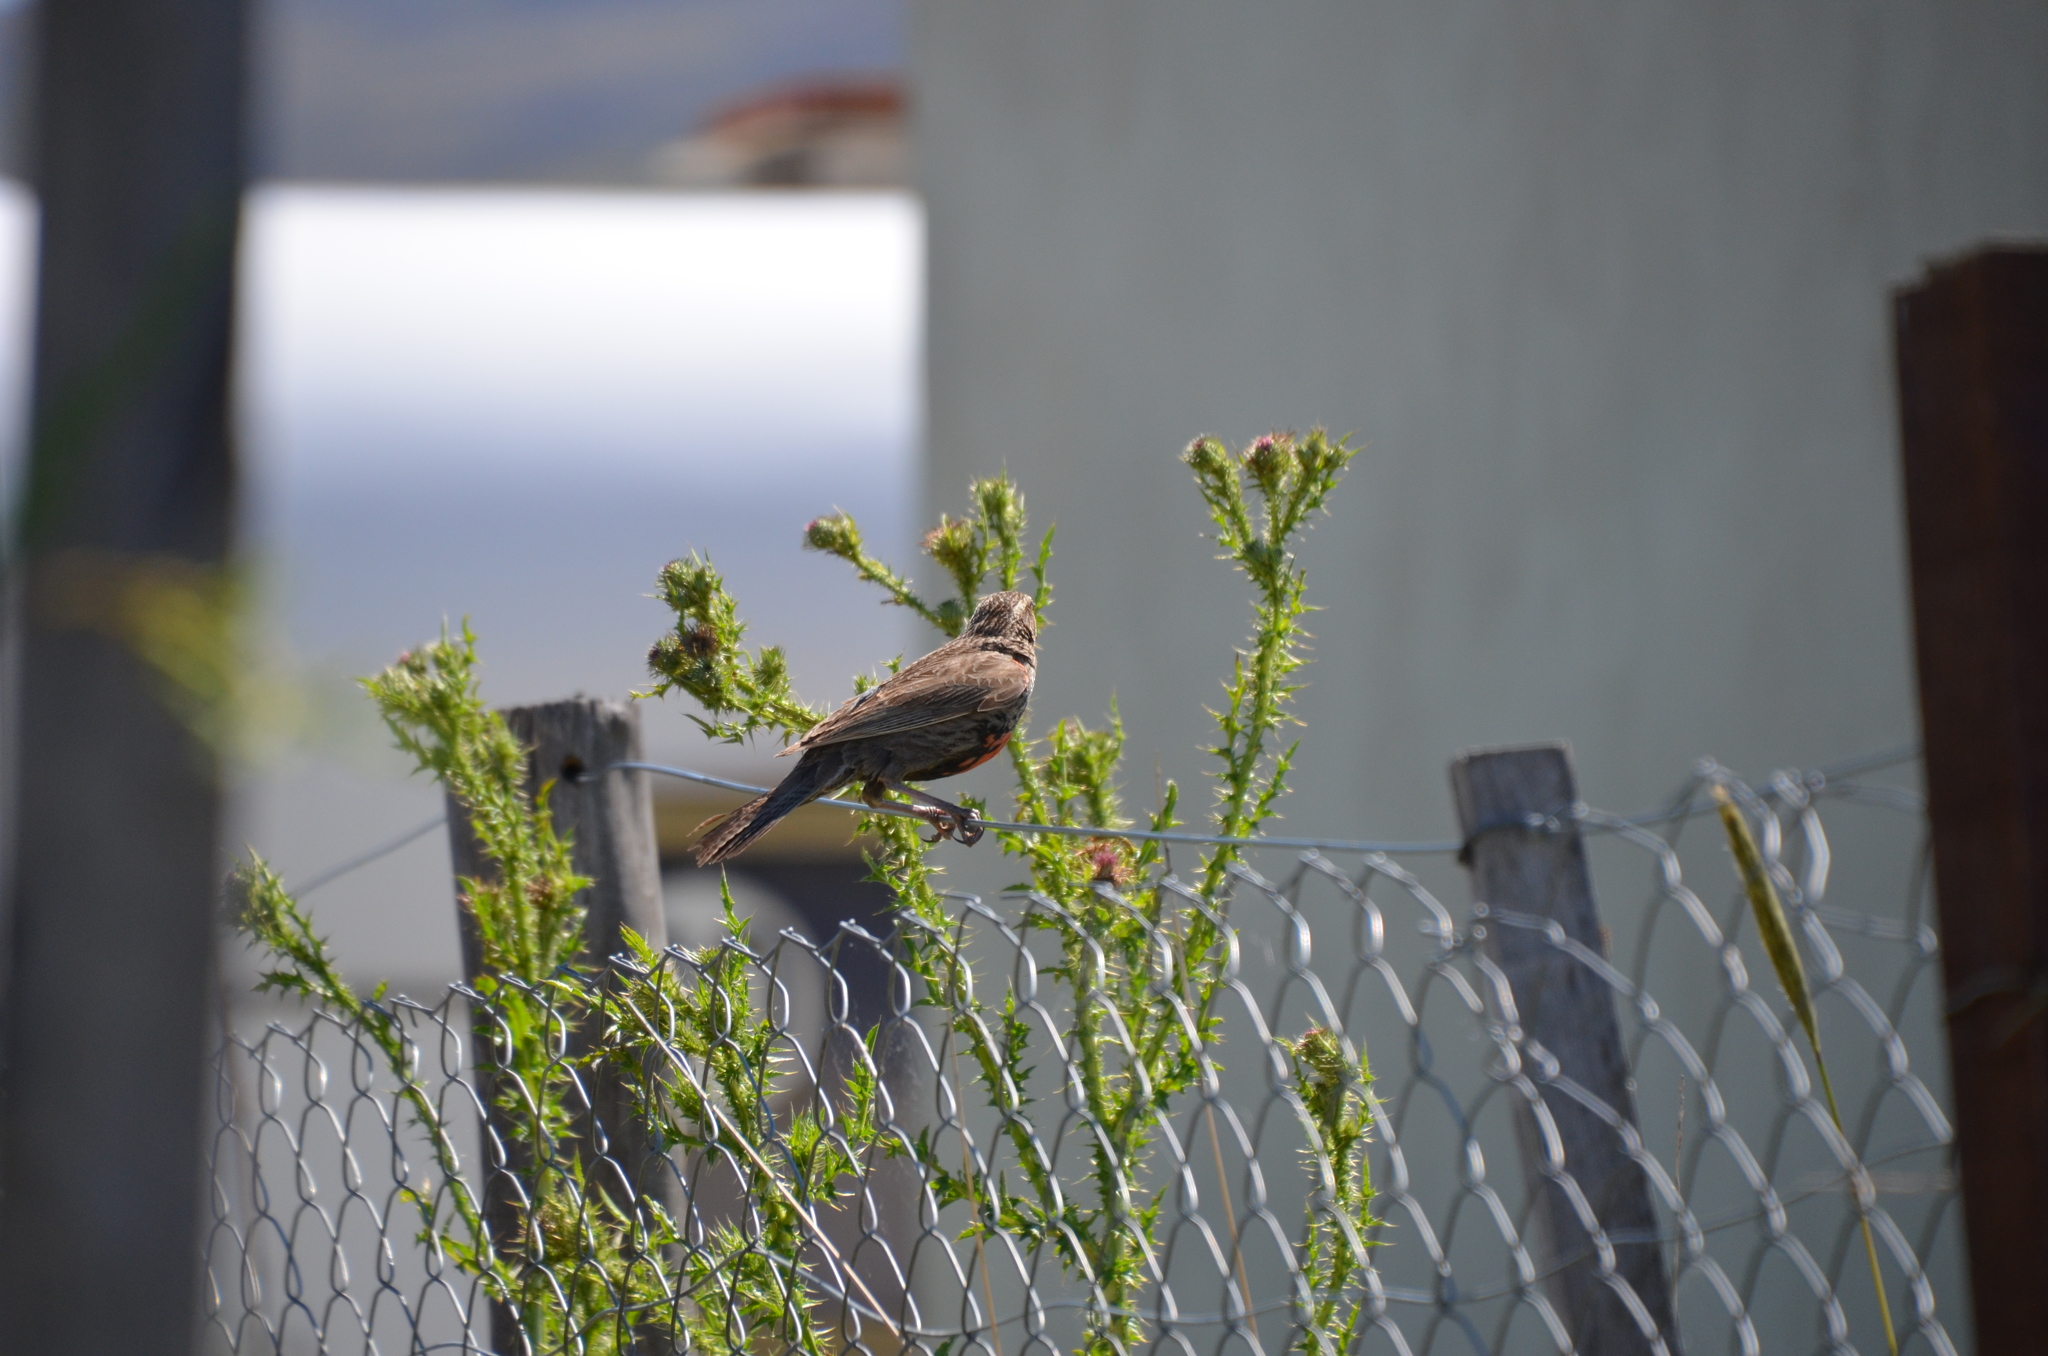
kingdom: Animalia
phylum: Chordata
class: Aves
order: Passeriformes
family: Icteridae
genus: Sturnella
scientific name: Sturnella defilippii
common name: Pampas meadowlark
